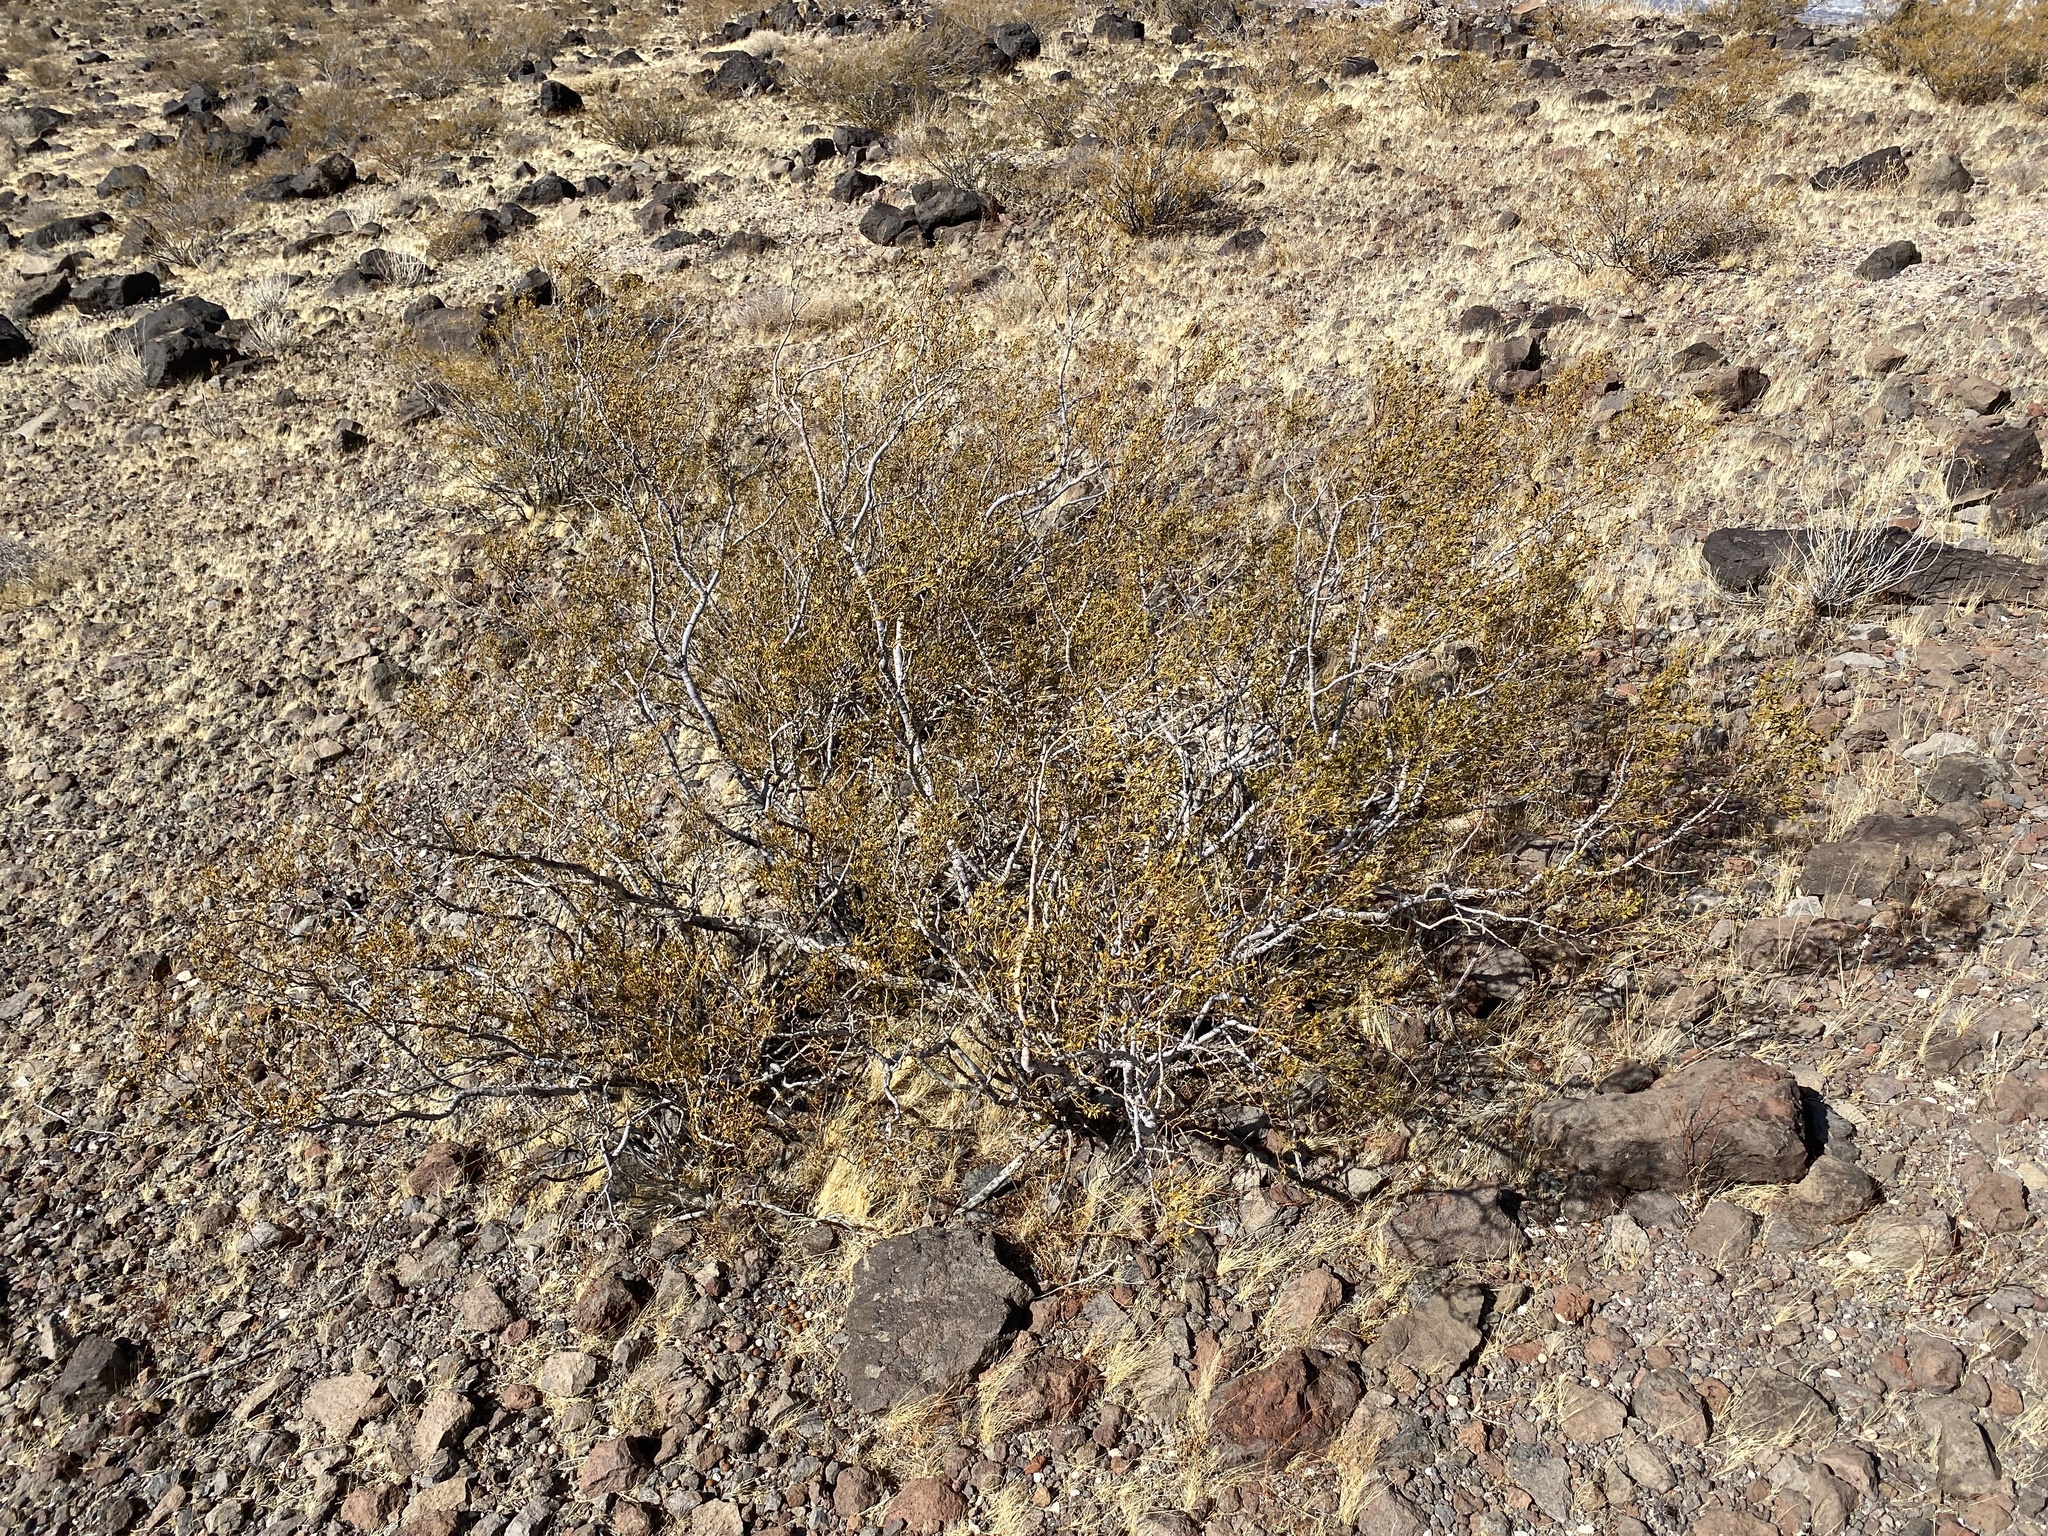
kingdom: Plantae
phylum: Tracheophyta
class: Magnoliopsida
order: Zygophyllales
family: Zygophyllaceae
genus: Larrea
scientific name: Larrea tridentata
